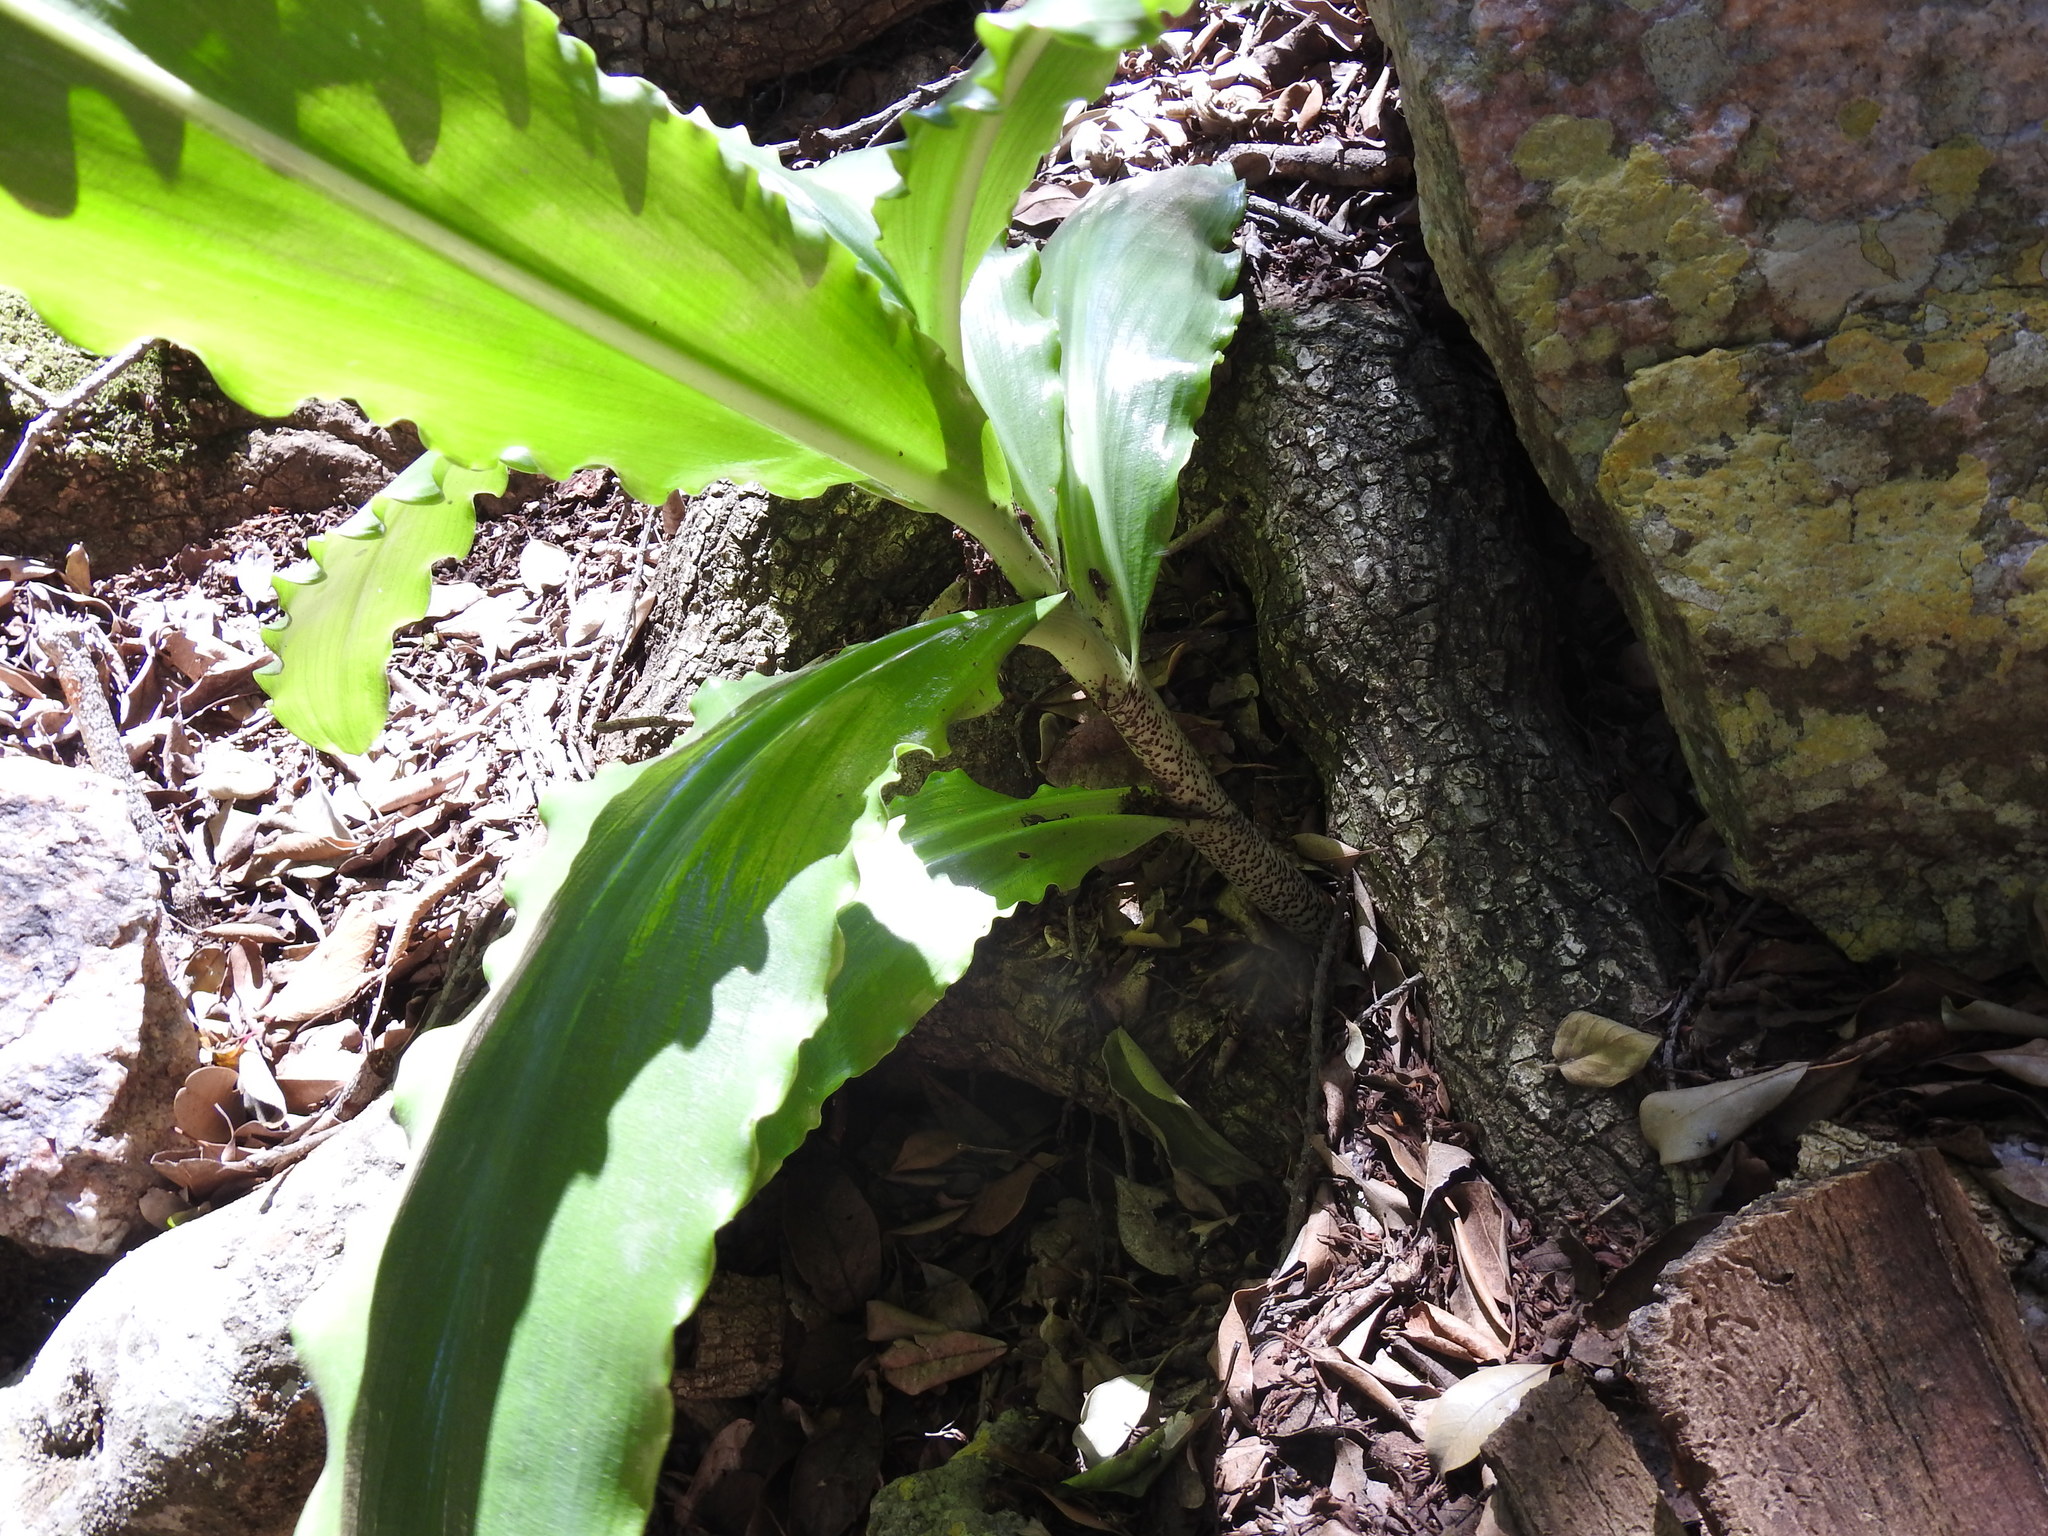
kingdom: Plantae
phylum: Tracheophyta
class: Liliopsida
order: Asparagales
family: Amaryllidaceae
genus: Scadoxus
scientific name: Scadoxus puniceus
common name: Royal-paintbrush
